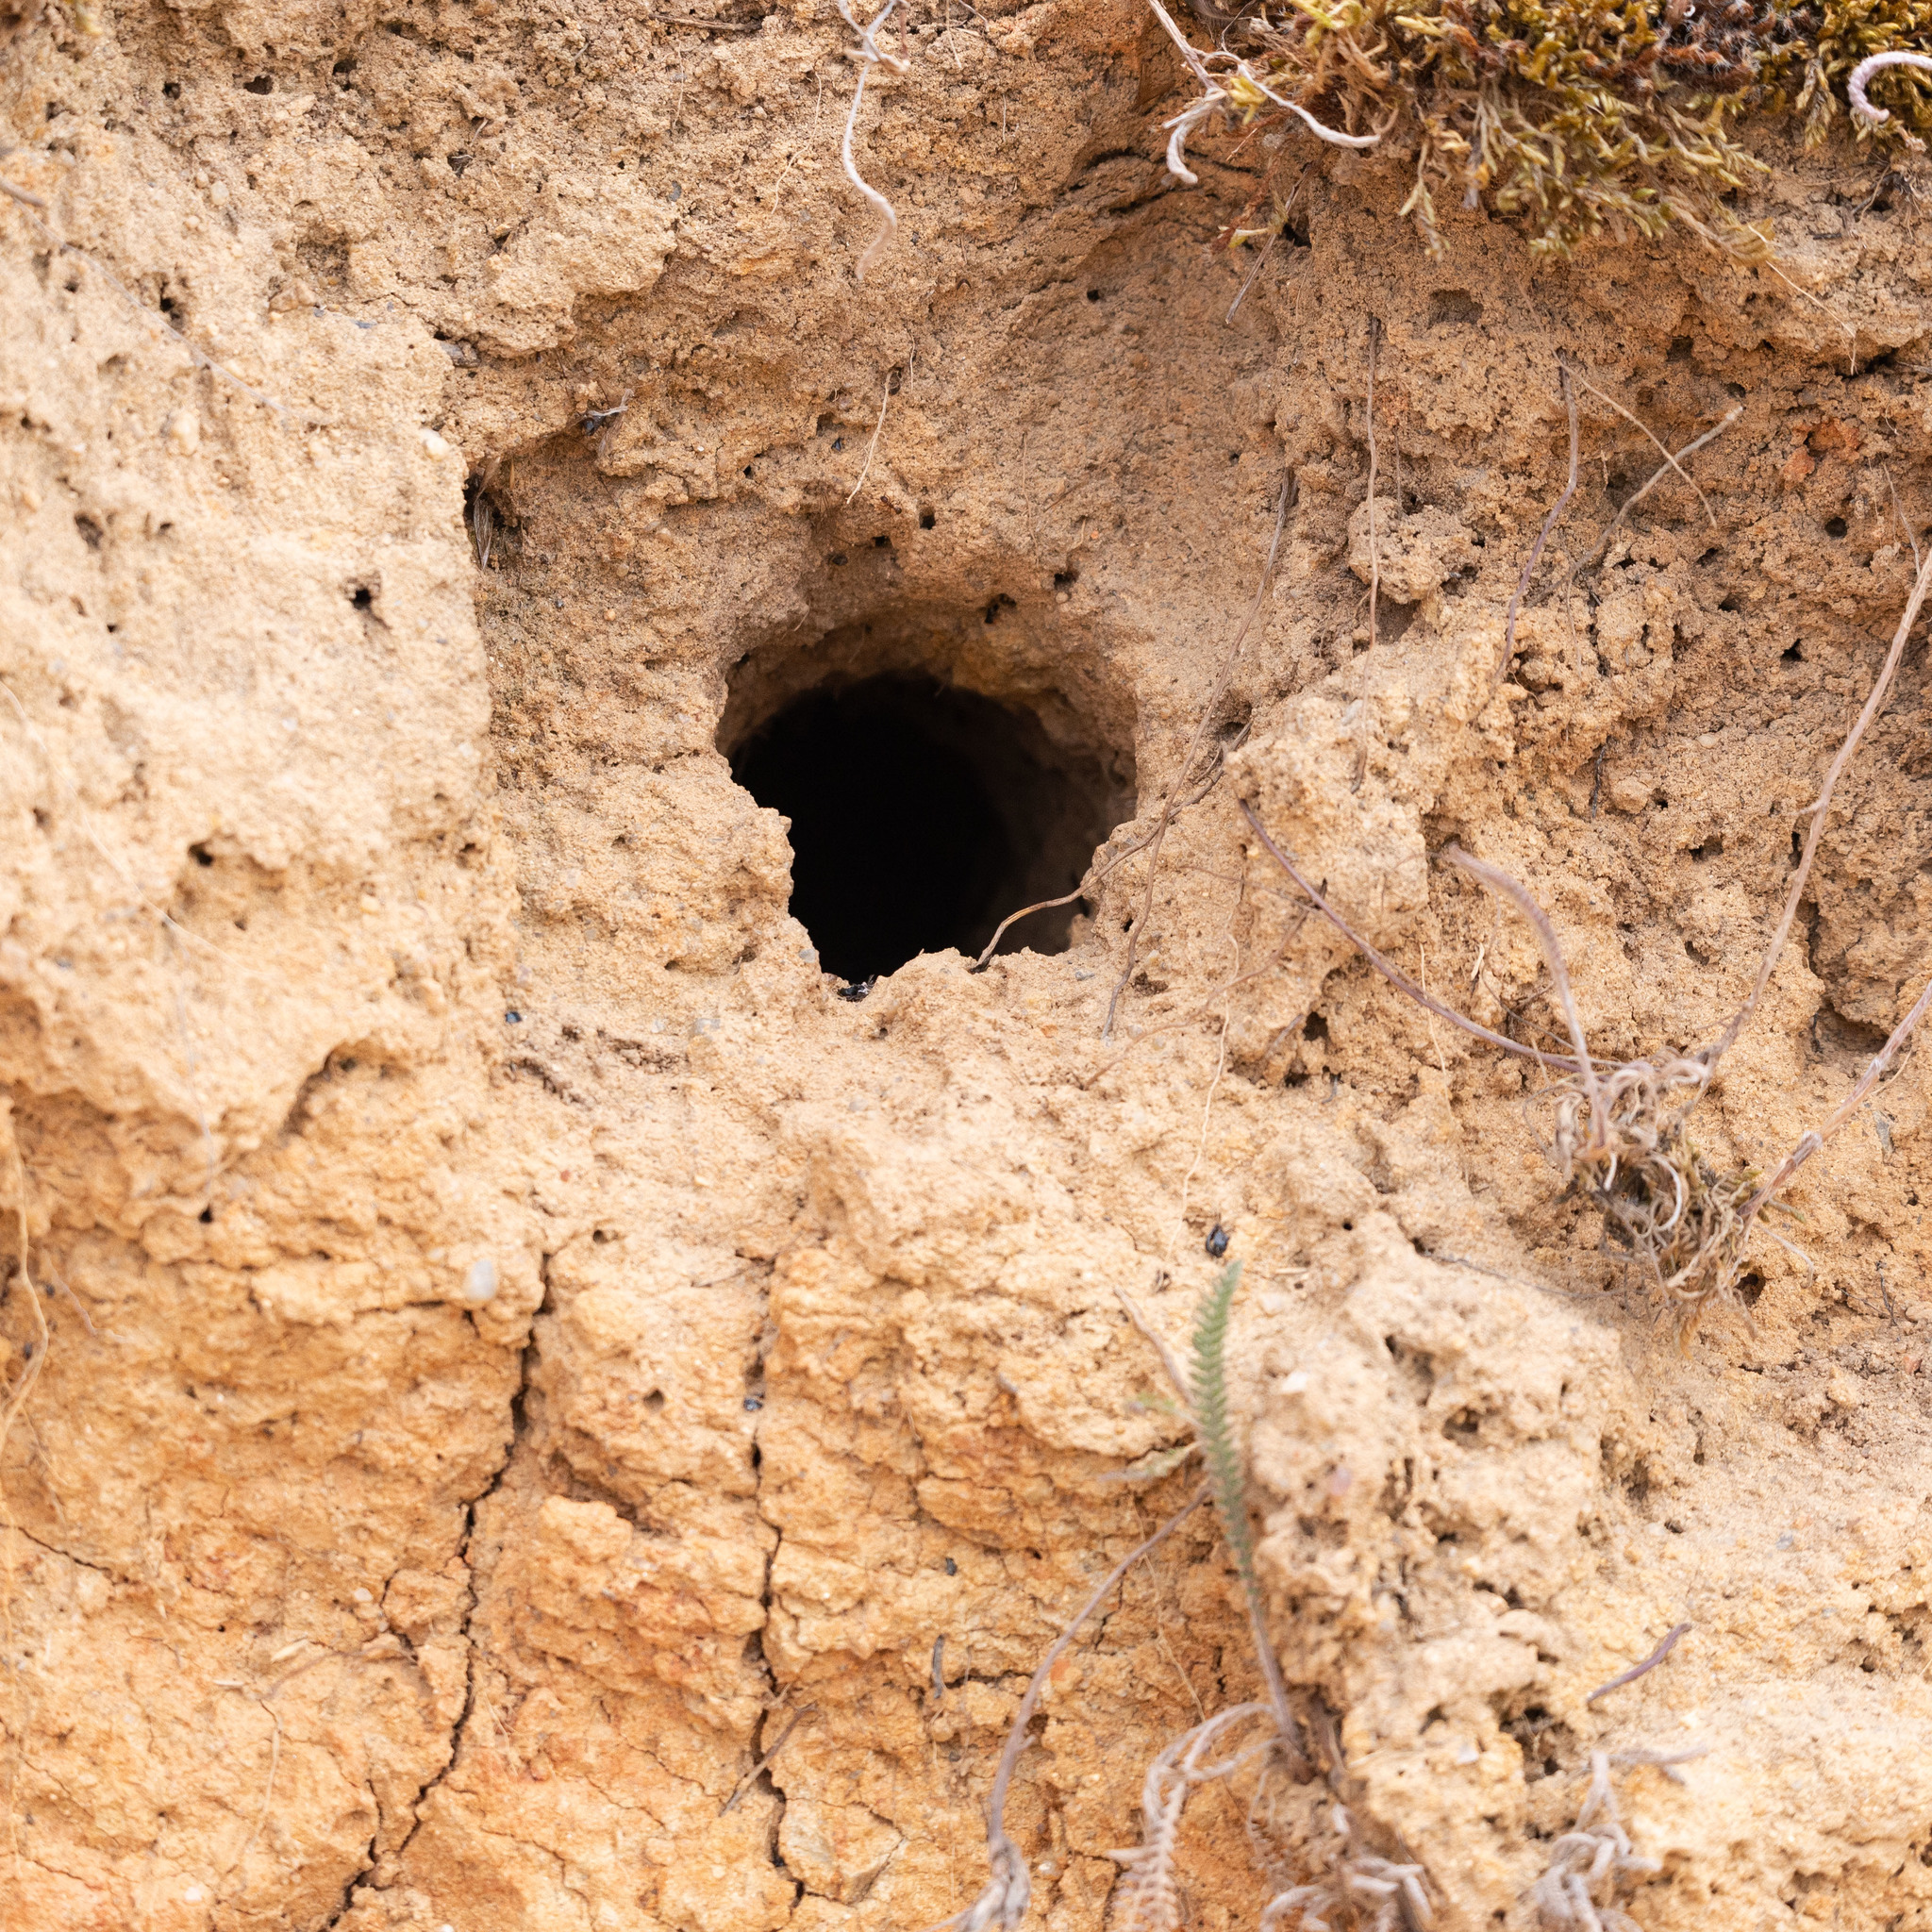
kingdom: Animalia
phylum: Chordata
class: Aves
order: Coraciiformes
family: Meropidae
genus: Merops
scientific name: Merops apiaster
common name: European bee-eater
